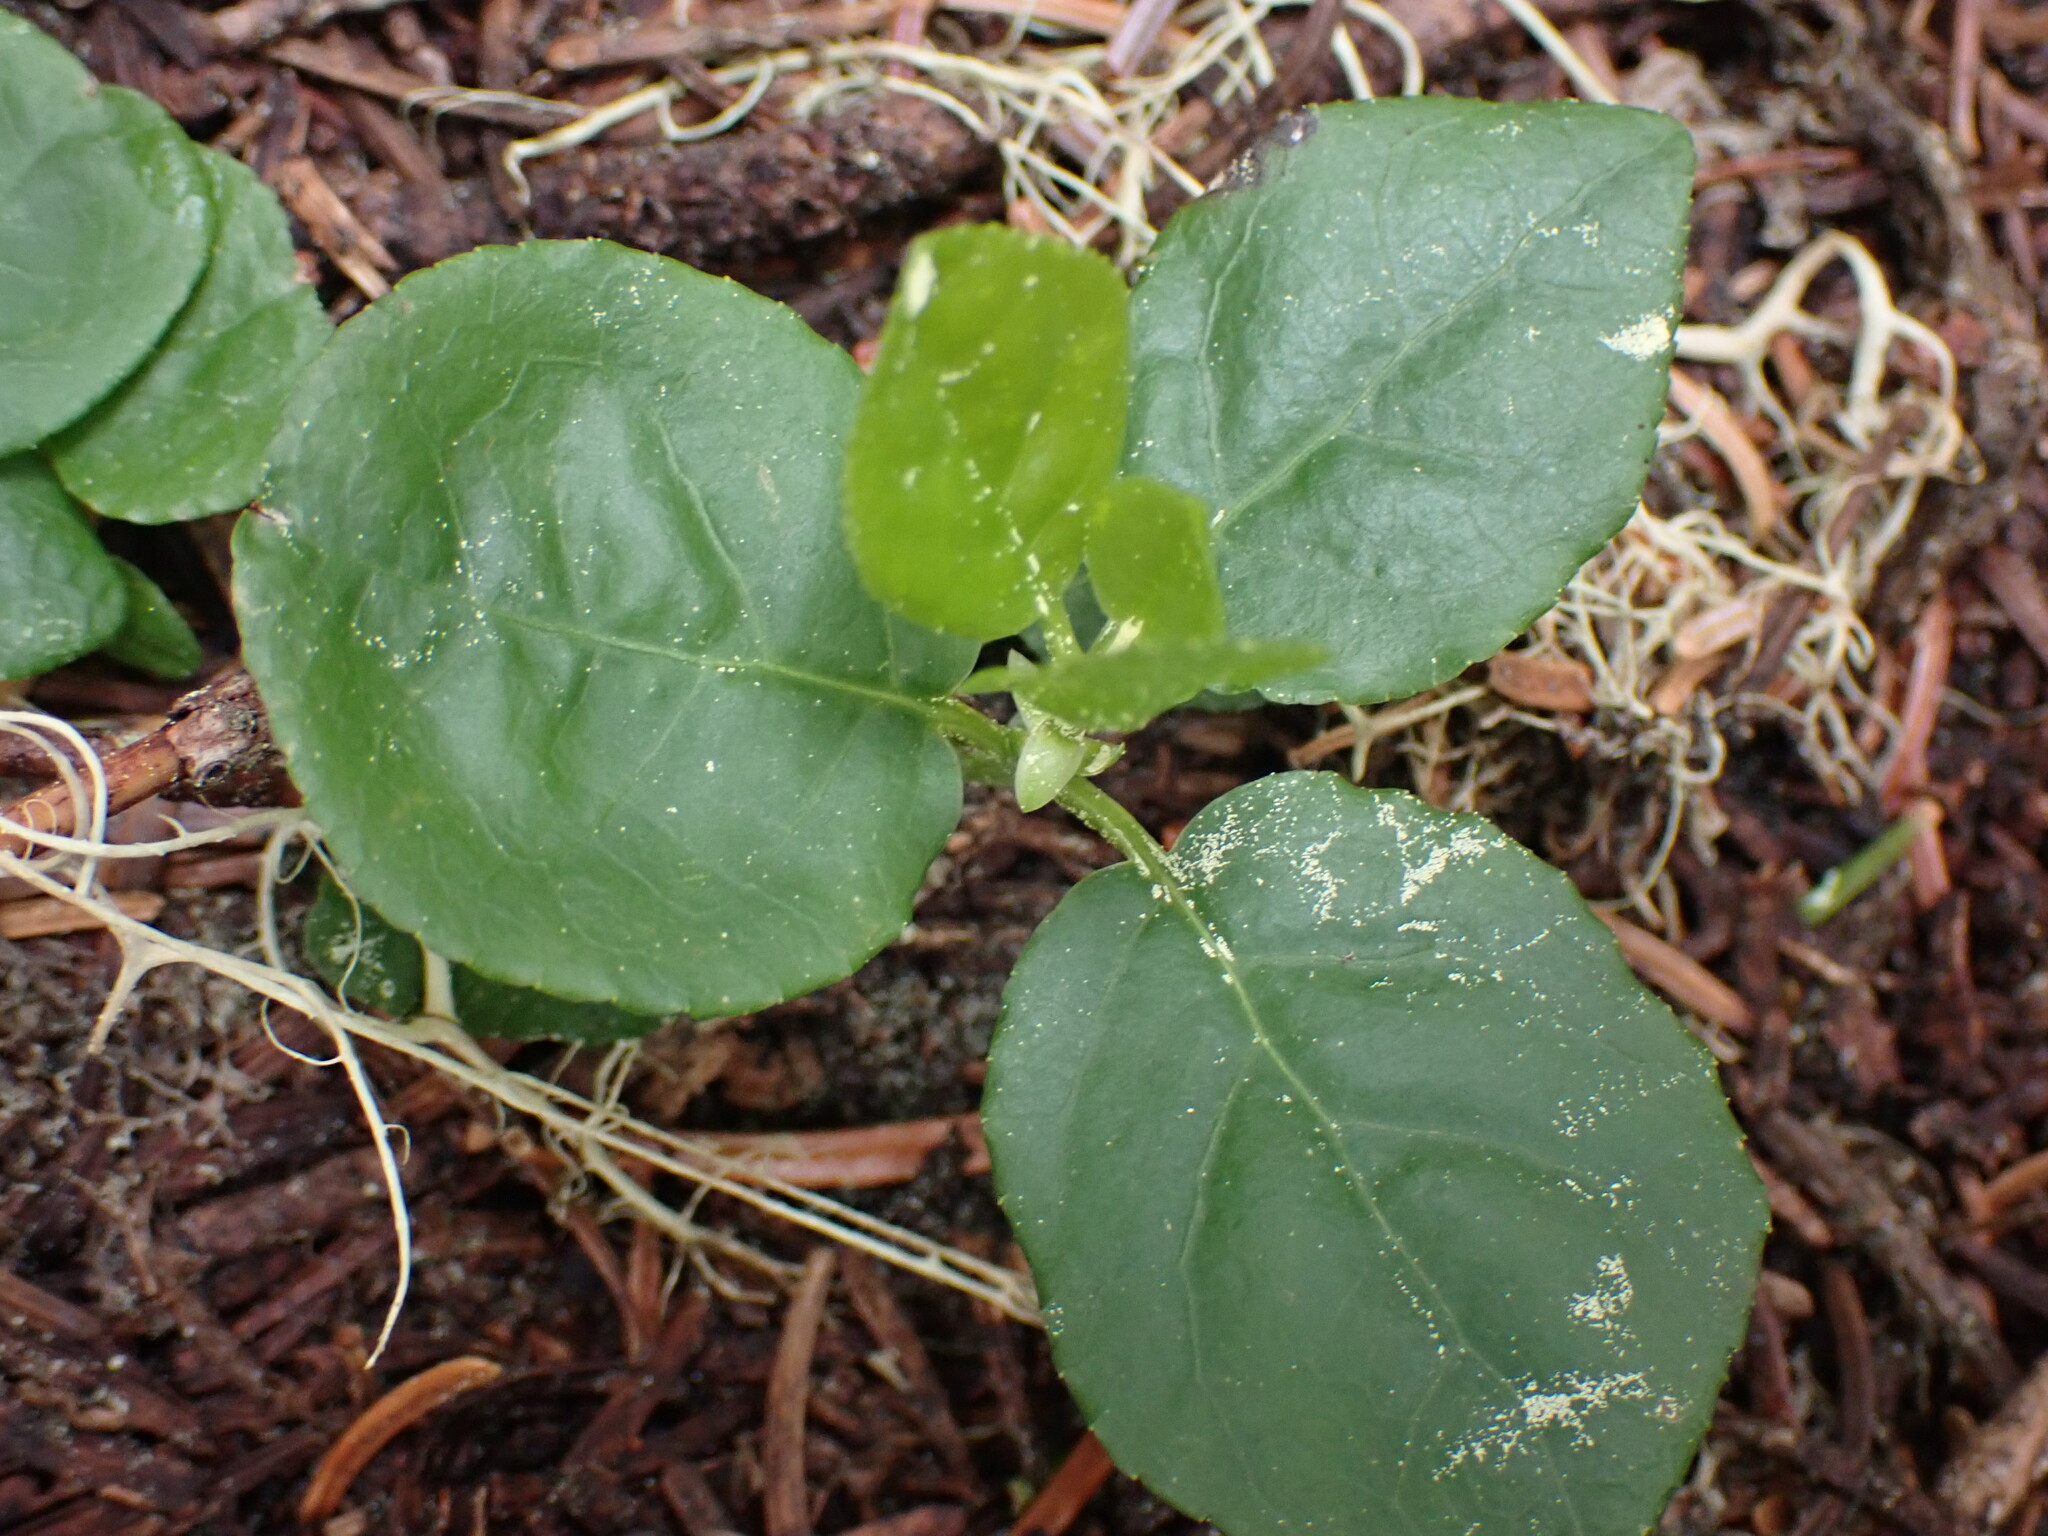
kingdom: Plantae
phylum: Tracheophyta
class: Magnoliopsida
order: Ericales
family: Ericaceae
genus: Orthilia
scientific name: Orthilia secunda
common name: One-sided orthilia
